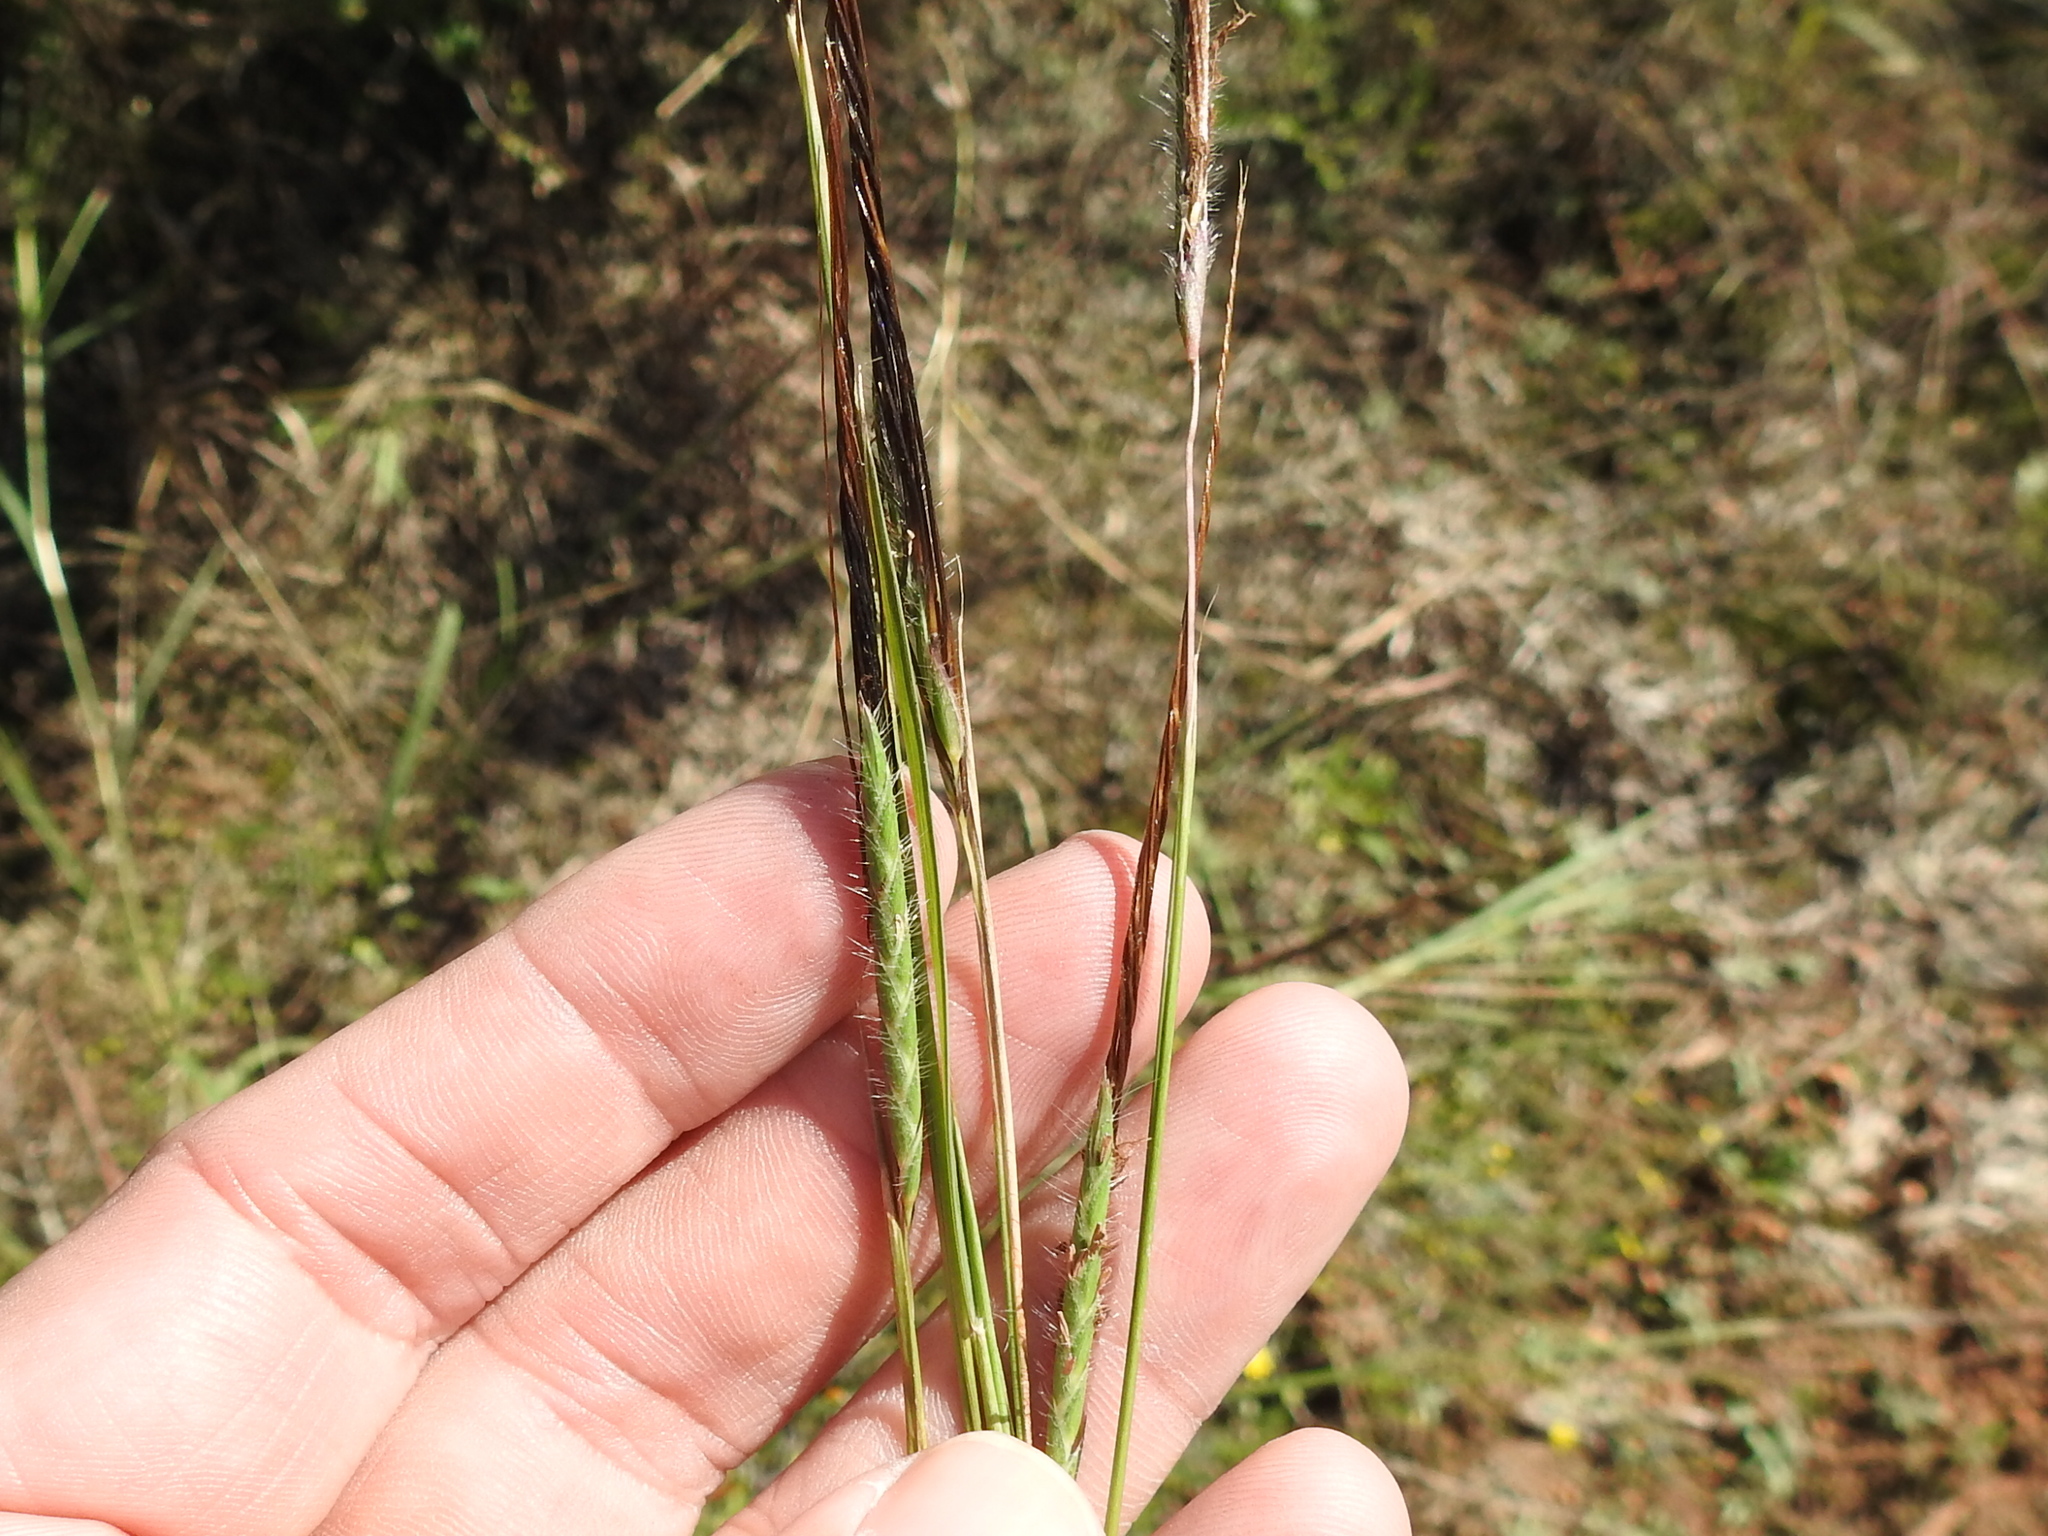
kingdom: Plantae
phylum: Tracheophyta
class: Liliopsida
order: Poales
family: Poaceae
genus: Heteropogon
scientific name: Heteropogon contortus
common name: Tanglehead
